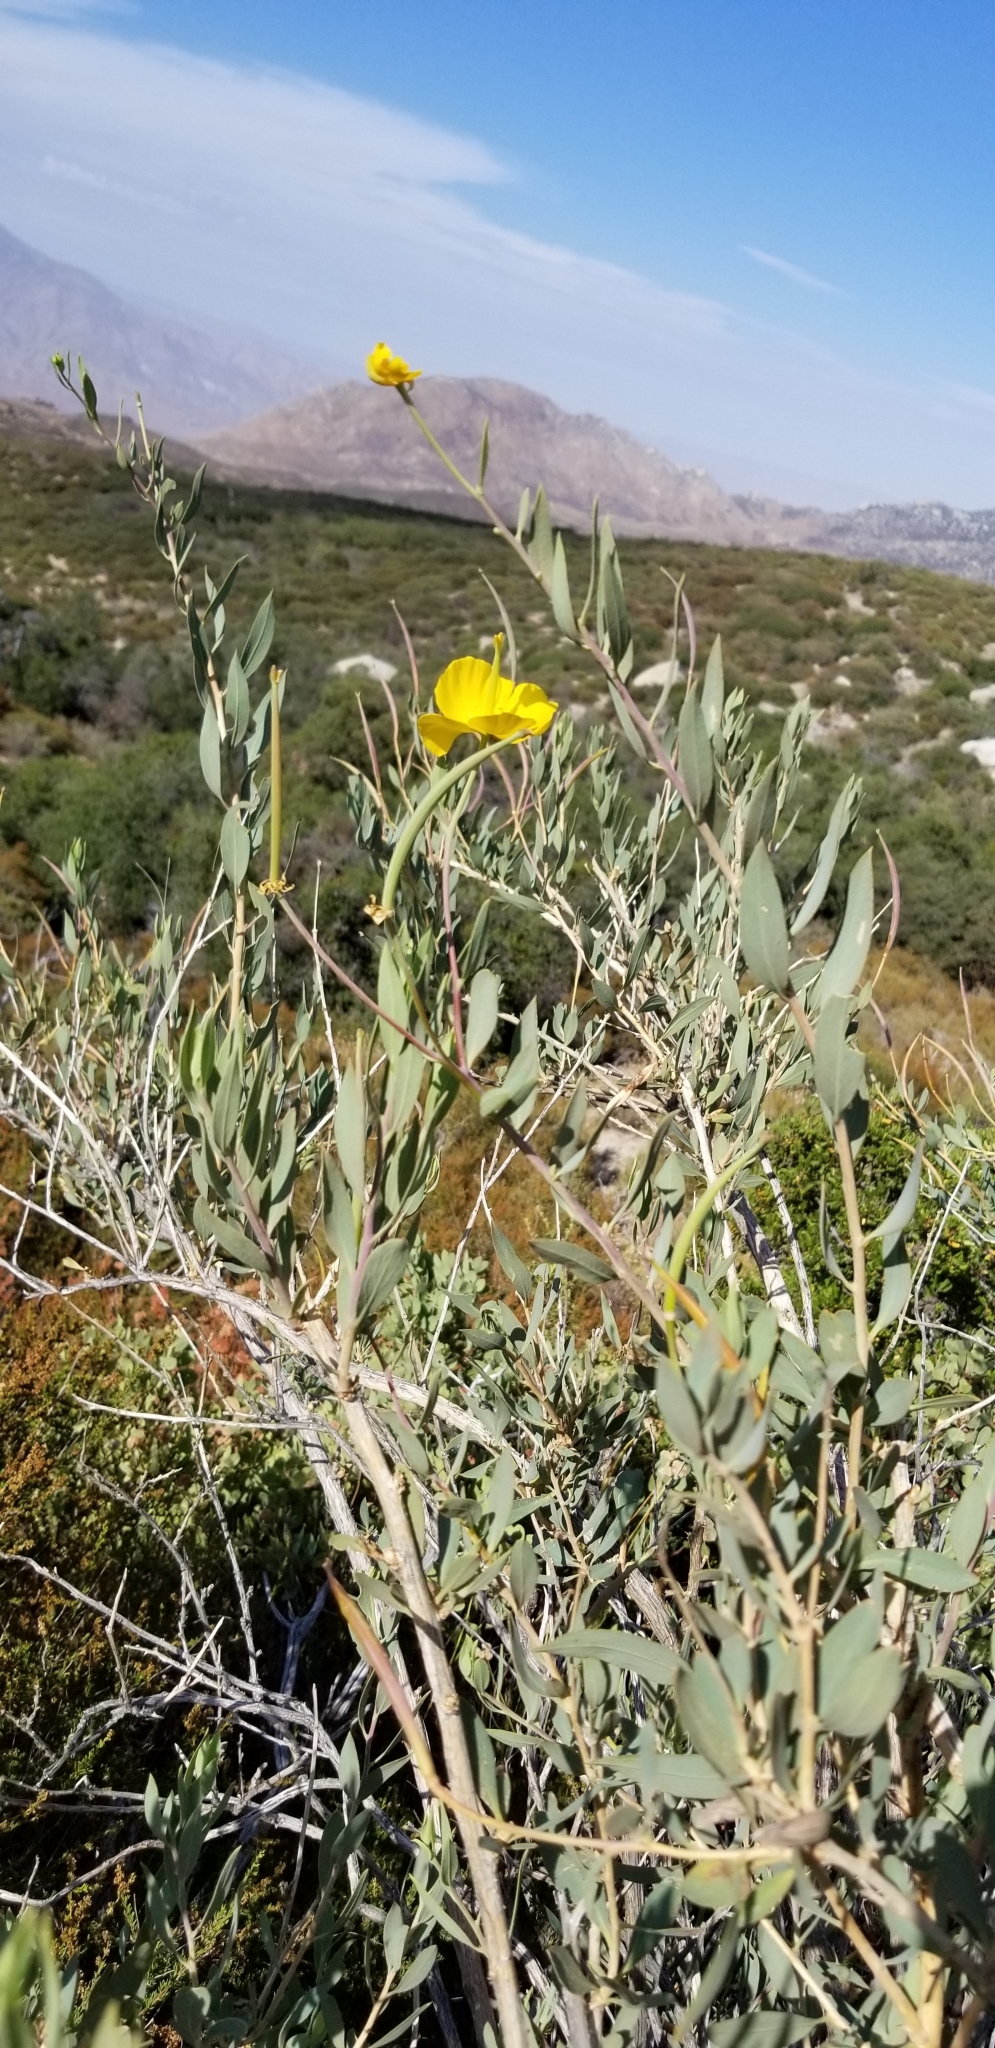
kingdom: Plantae
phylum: Tracheophyta
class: Magnoliopsida
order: Ranunculales
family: Papaveraceae
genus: Dendromecon
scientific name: Dendromecon rigida
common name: Tree poppy
